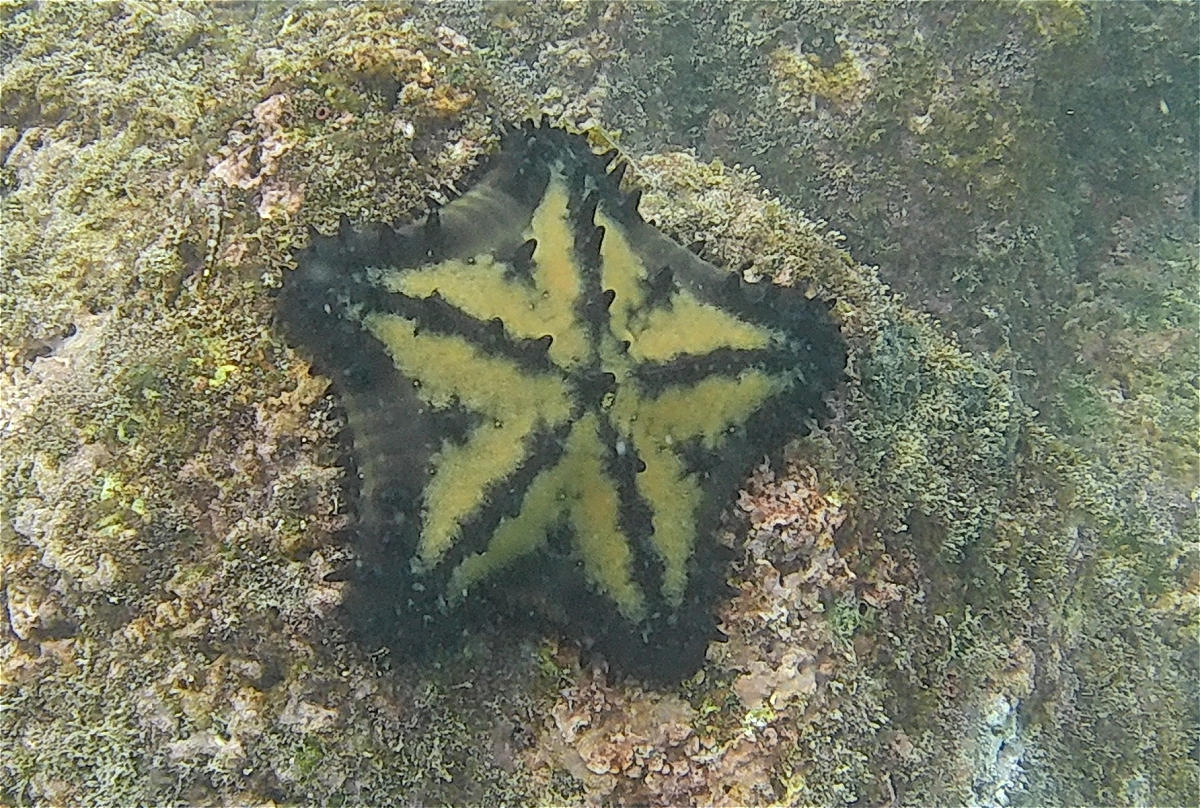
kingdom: Animalia
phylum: Echinodermata
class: Asteroidea
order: Valvatida
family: Oreasteridae
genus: Nidorellia
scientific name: Nidorellia armata
